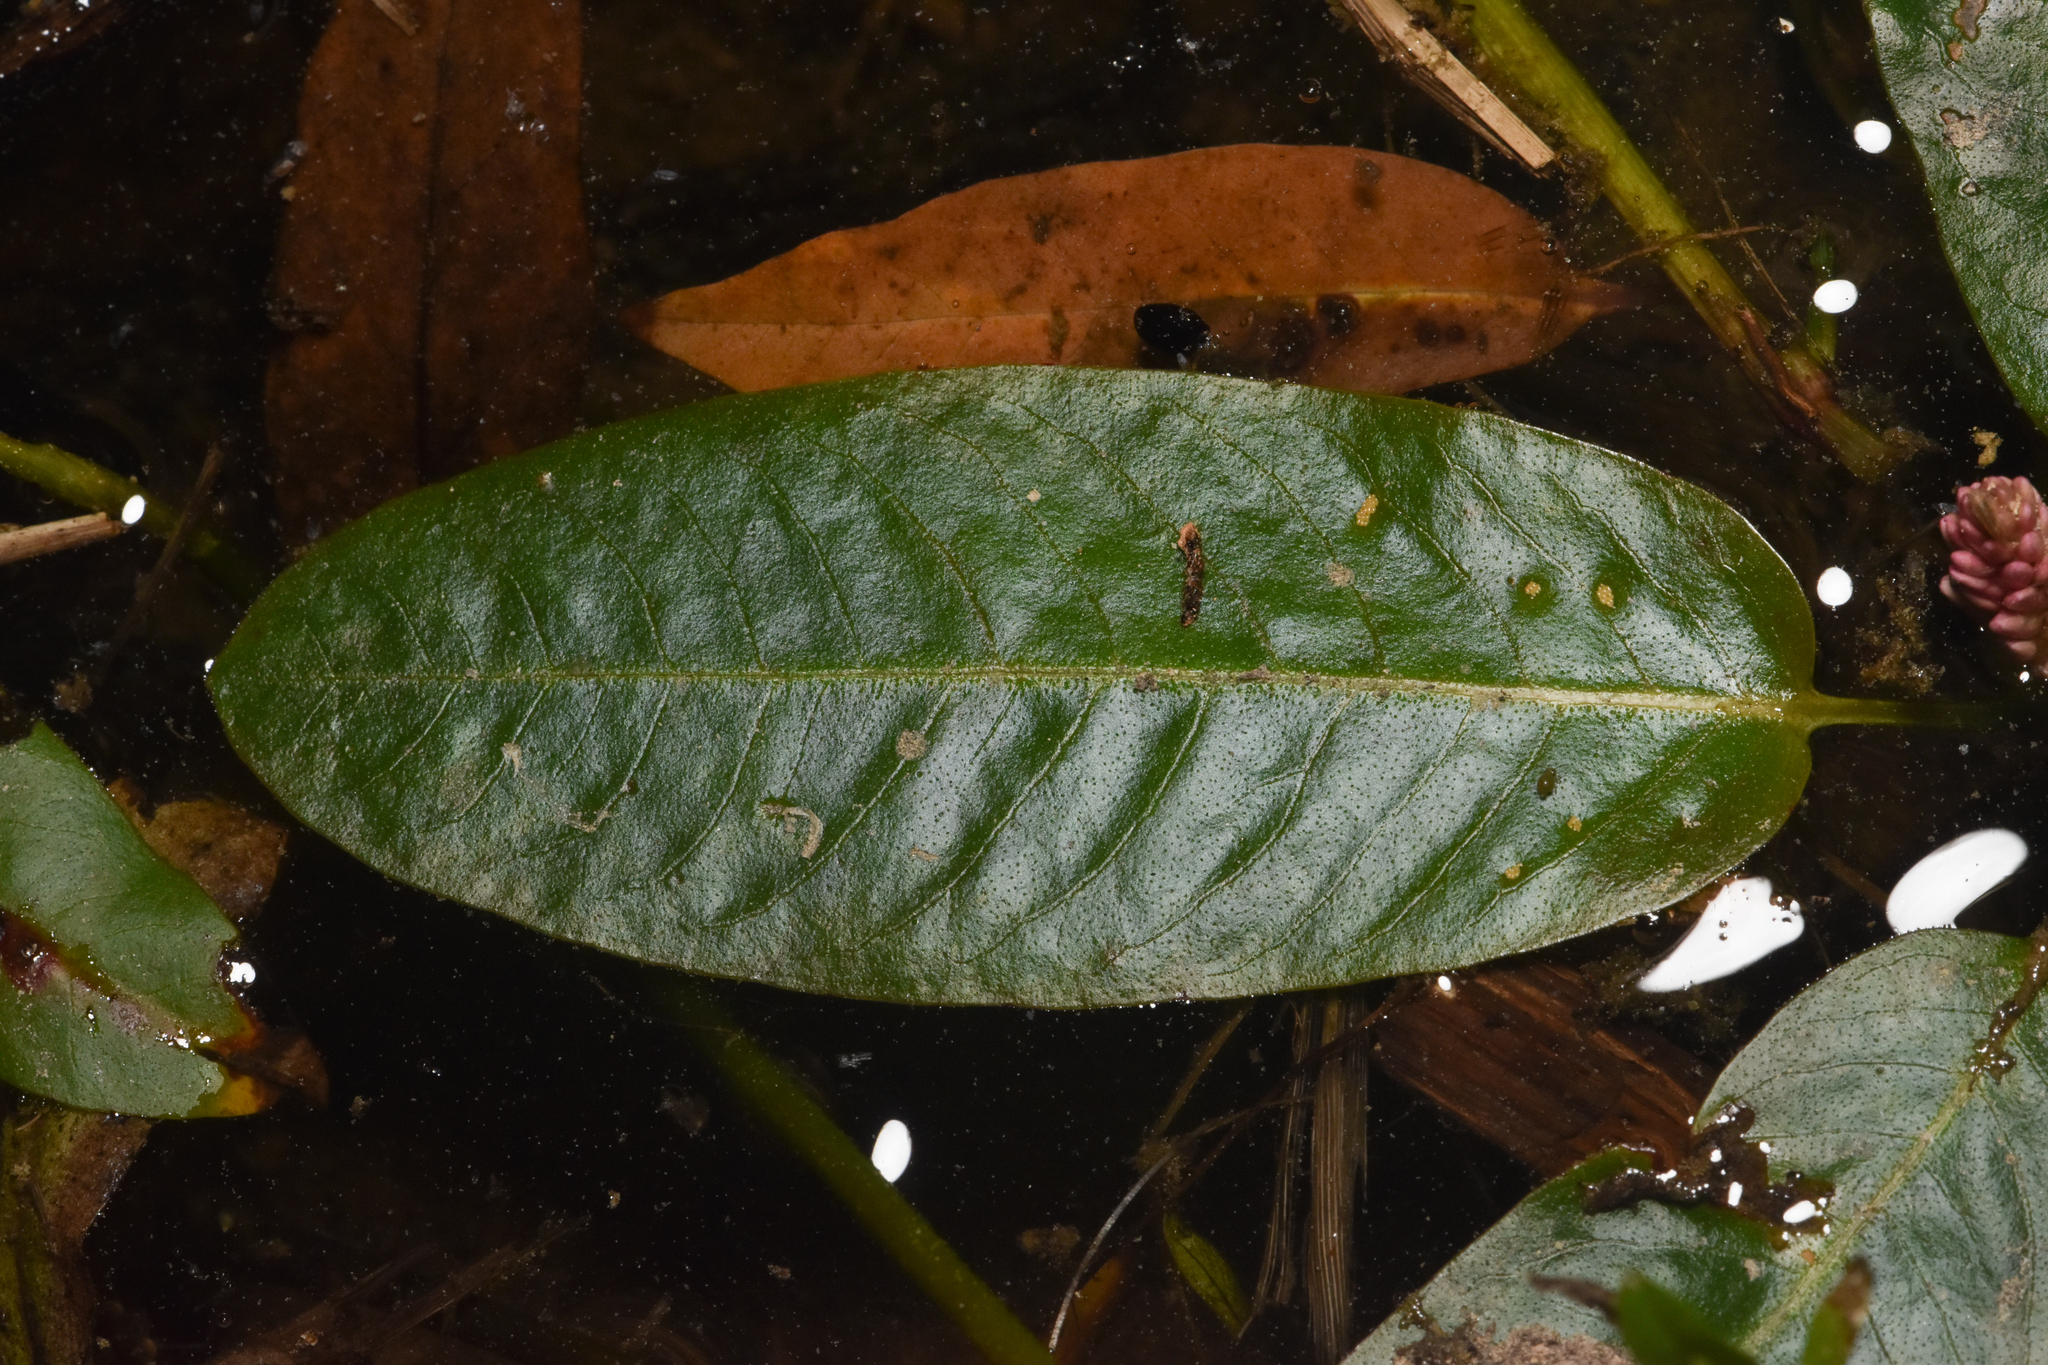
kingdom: Plantae
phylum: Tracheophyta
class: Magnoliopsida
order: Caryophyllales
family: Polygonaceae
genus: Persicaria
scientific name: Persicaria amphibia
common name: Amphibious bistort
